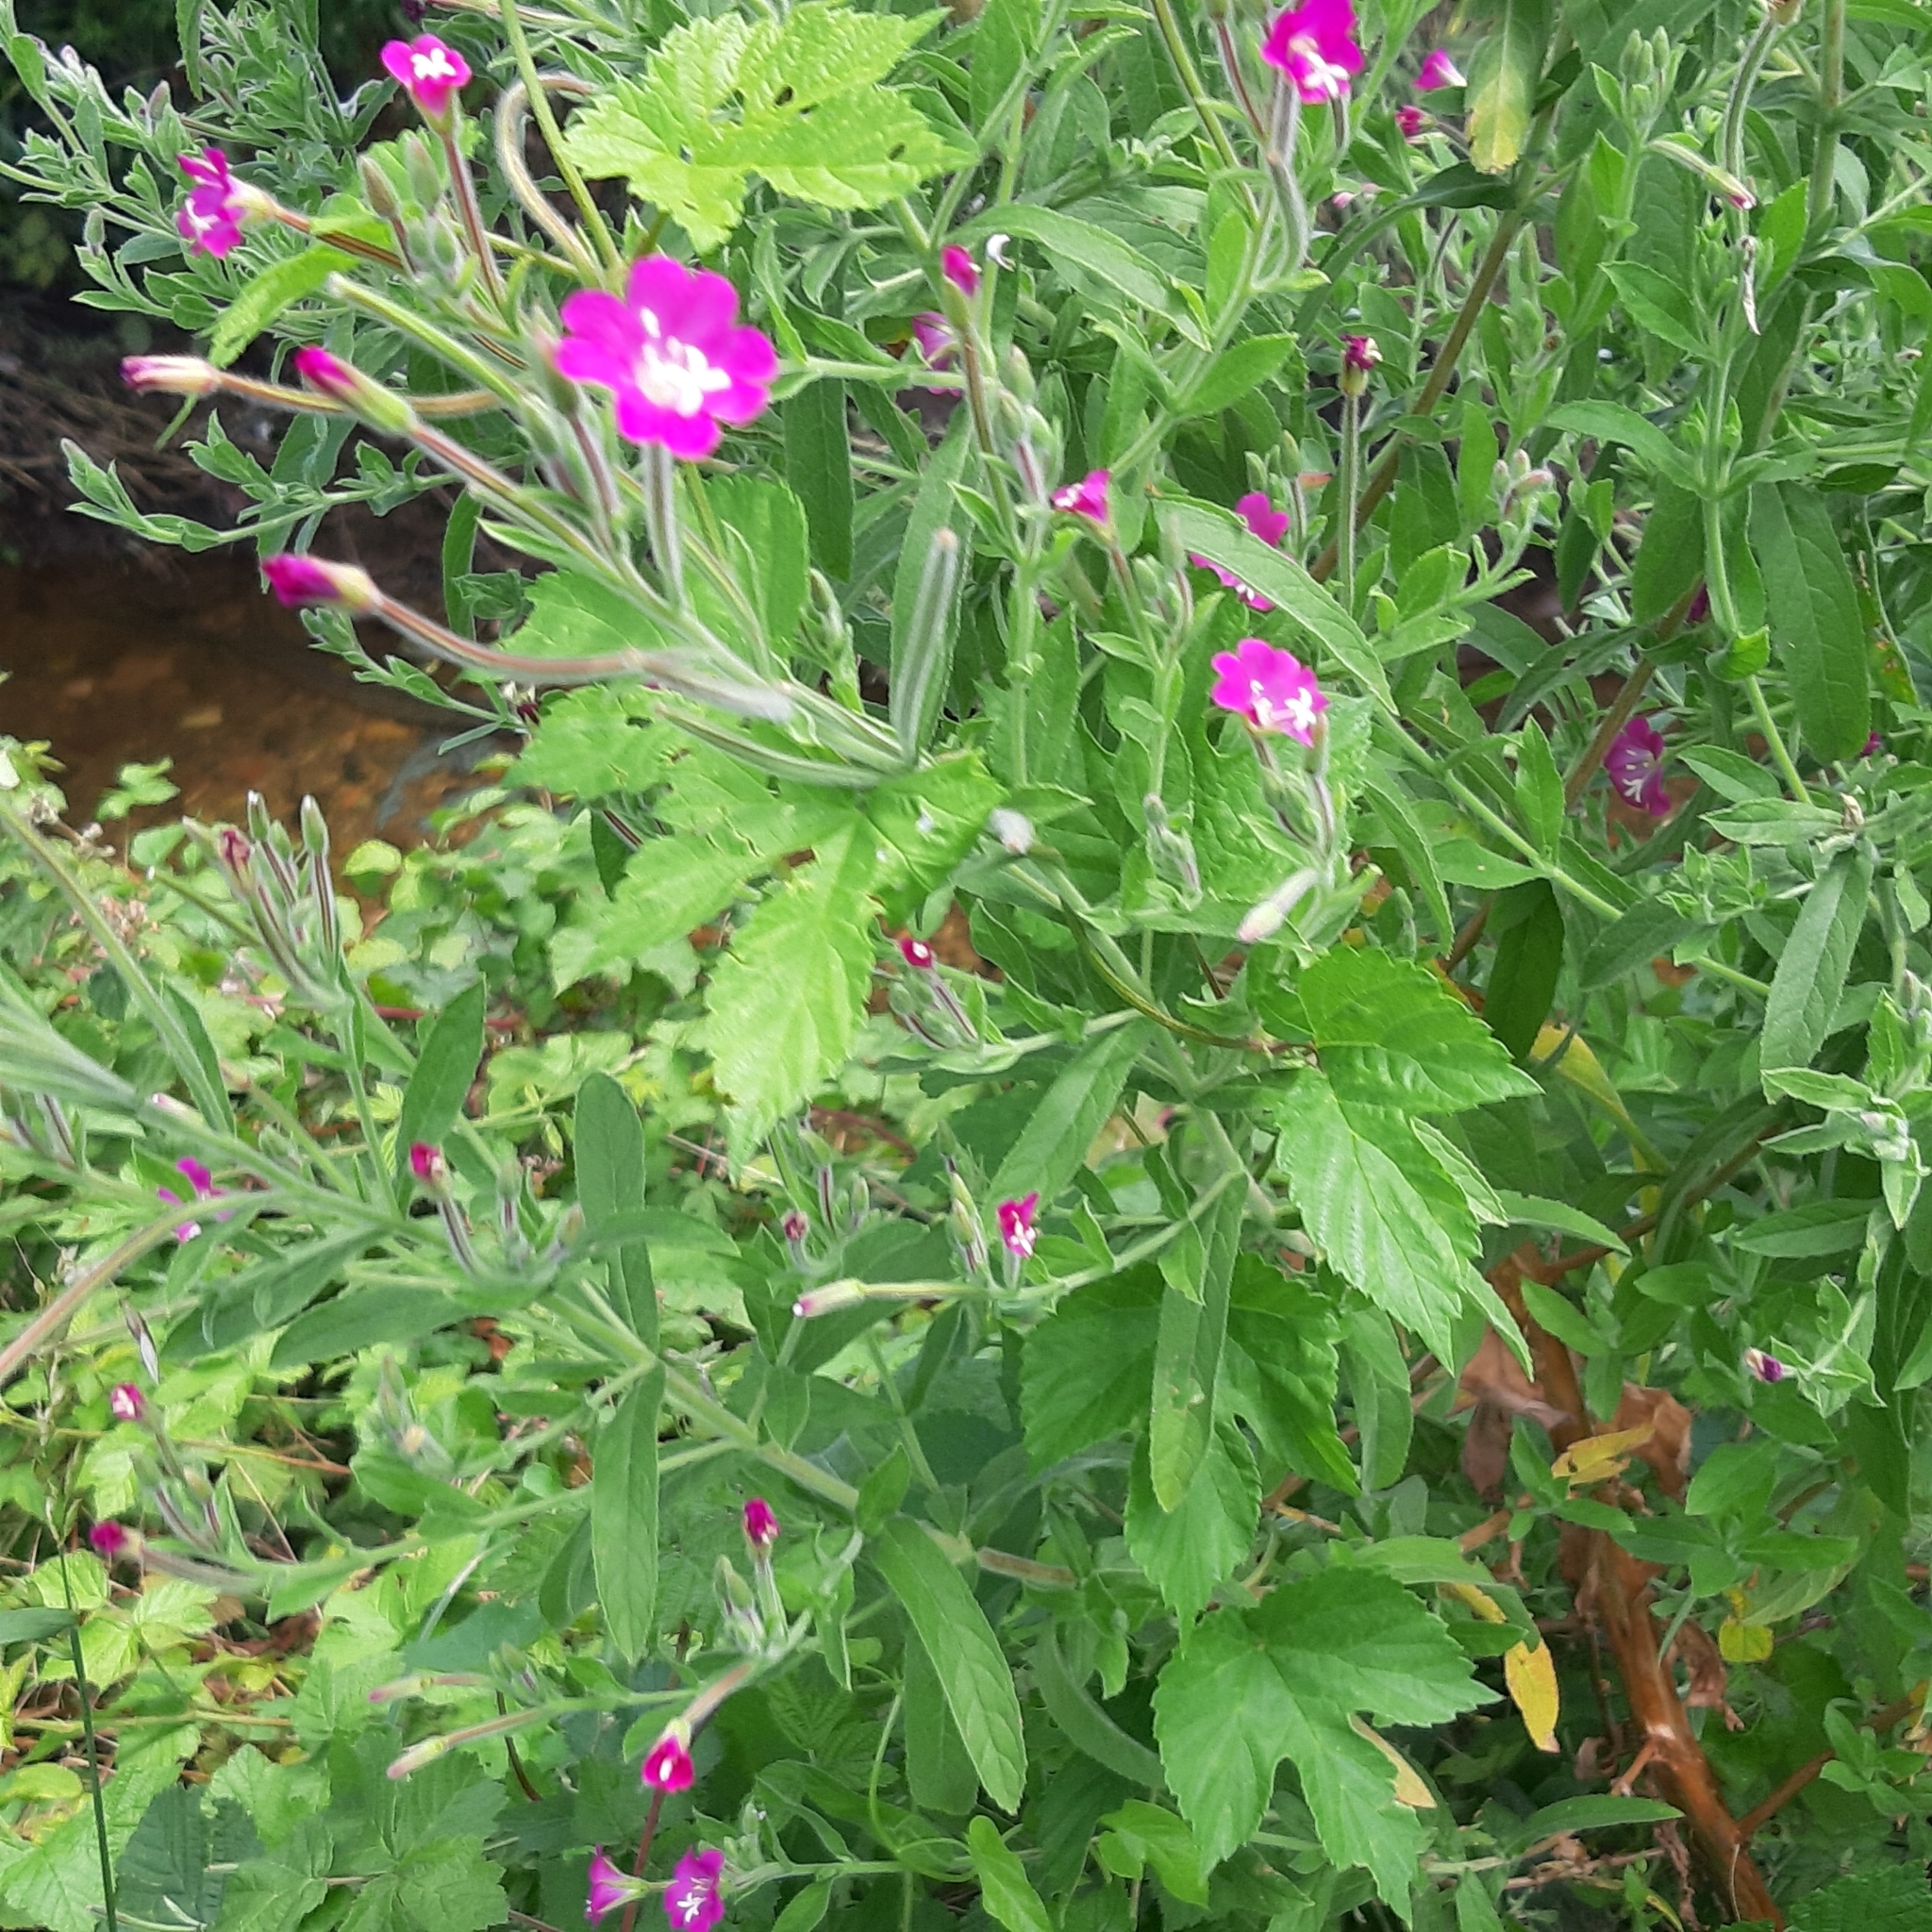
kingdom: Plantae
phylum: Tracheophyta
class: Magnoliopsida
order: Myrtales
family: Onagraceae
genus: Epilobium
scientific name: Epilobium hirsutum
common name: Great willowherb
